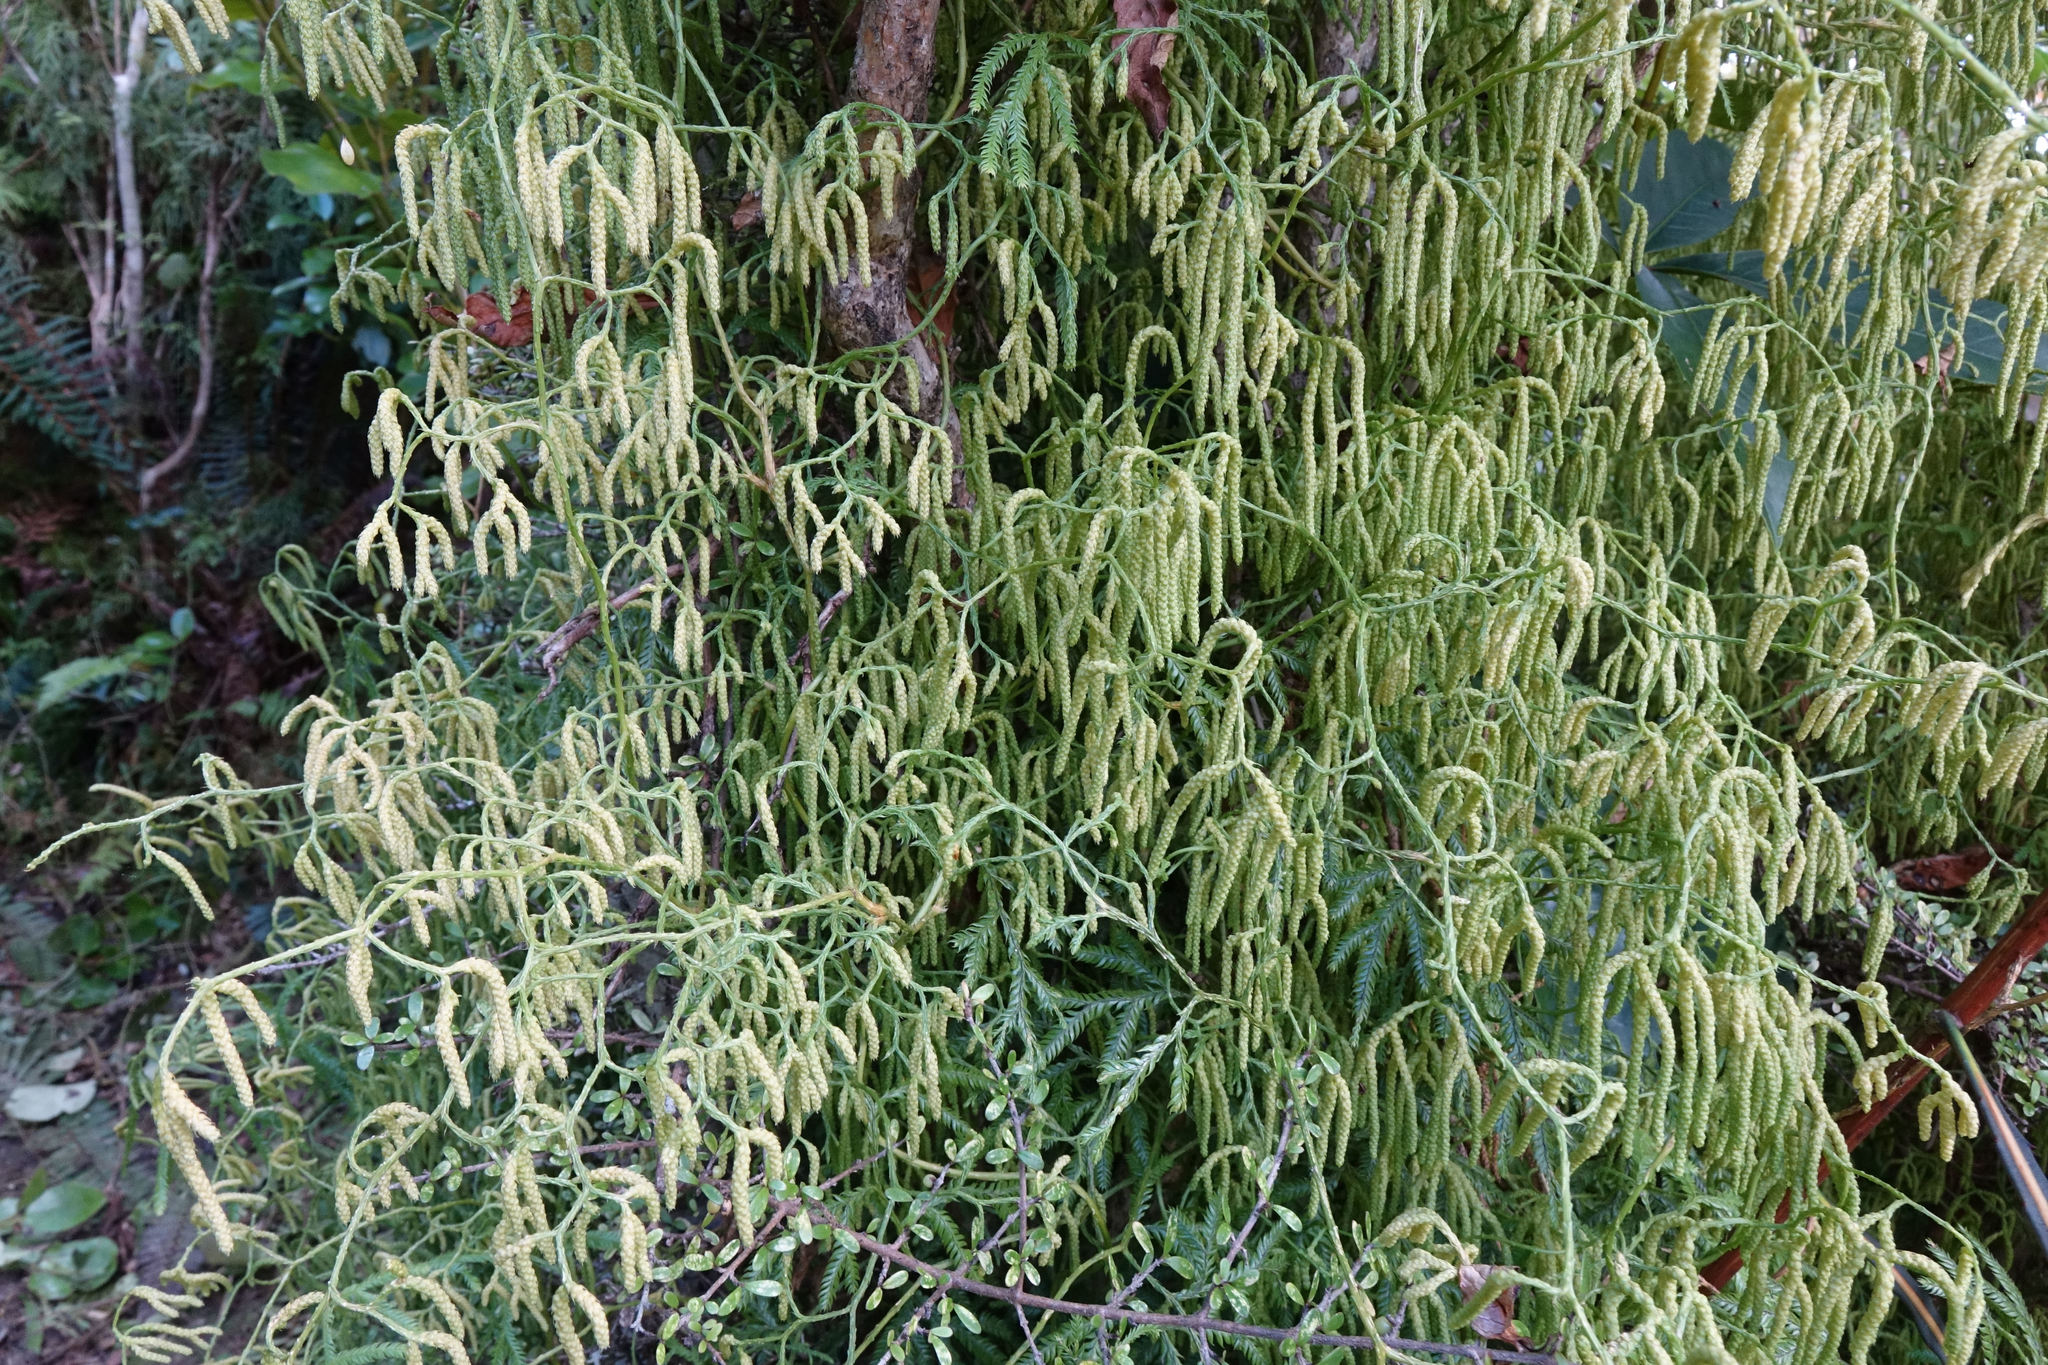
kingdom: Plantae
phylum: Tracheophyta
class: Lycopodiopsida
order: Lycopodiales
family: Lycopodiaceae
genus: Lycopodium
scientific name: Lycopodium volubile
